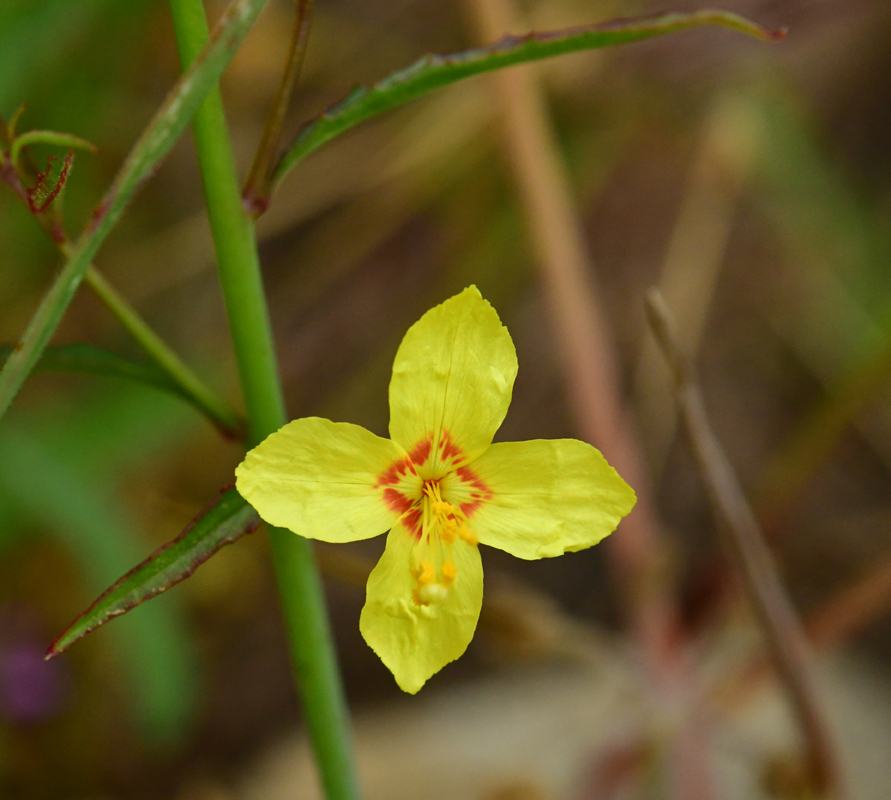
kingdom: Plantae
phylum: Tracheophyta
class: Magnoliopsida
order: Myrtales
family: Onagraceae
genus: Eulobus
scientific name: Eulobus californicus
